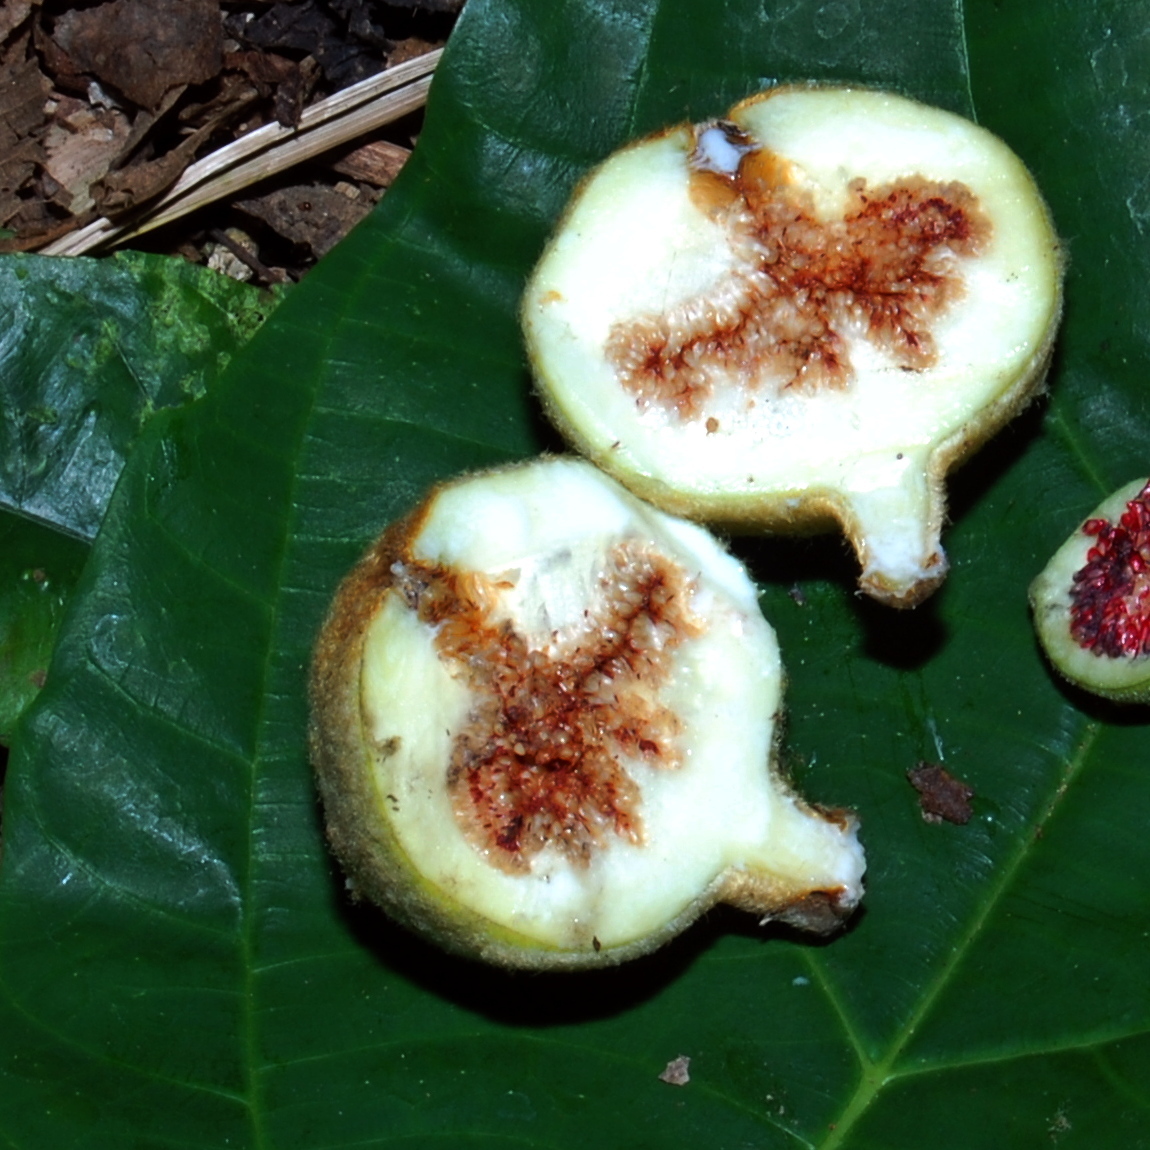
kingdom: Plantae
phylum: Tracheophyta
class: Magnoliopsida
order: Rosales
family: Moraceae
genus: Ficus
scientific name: Ficus padana
